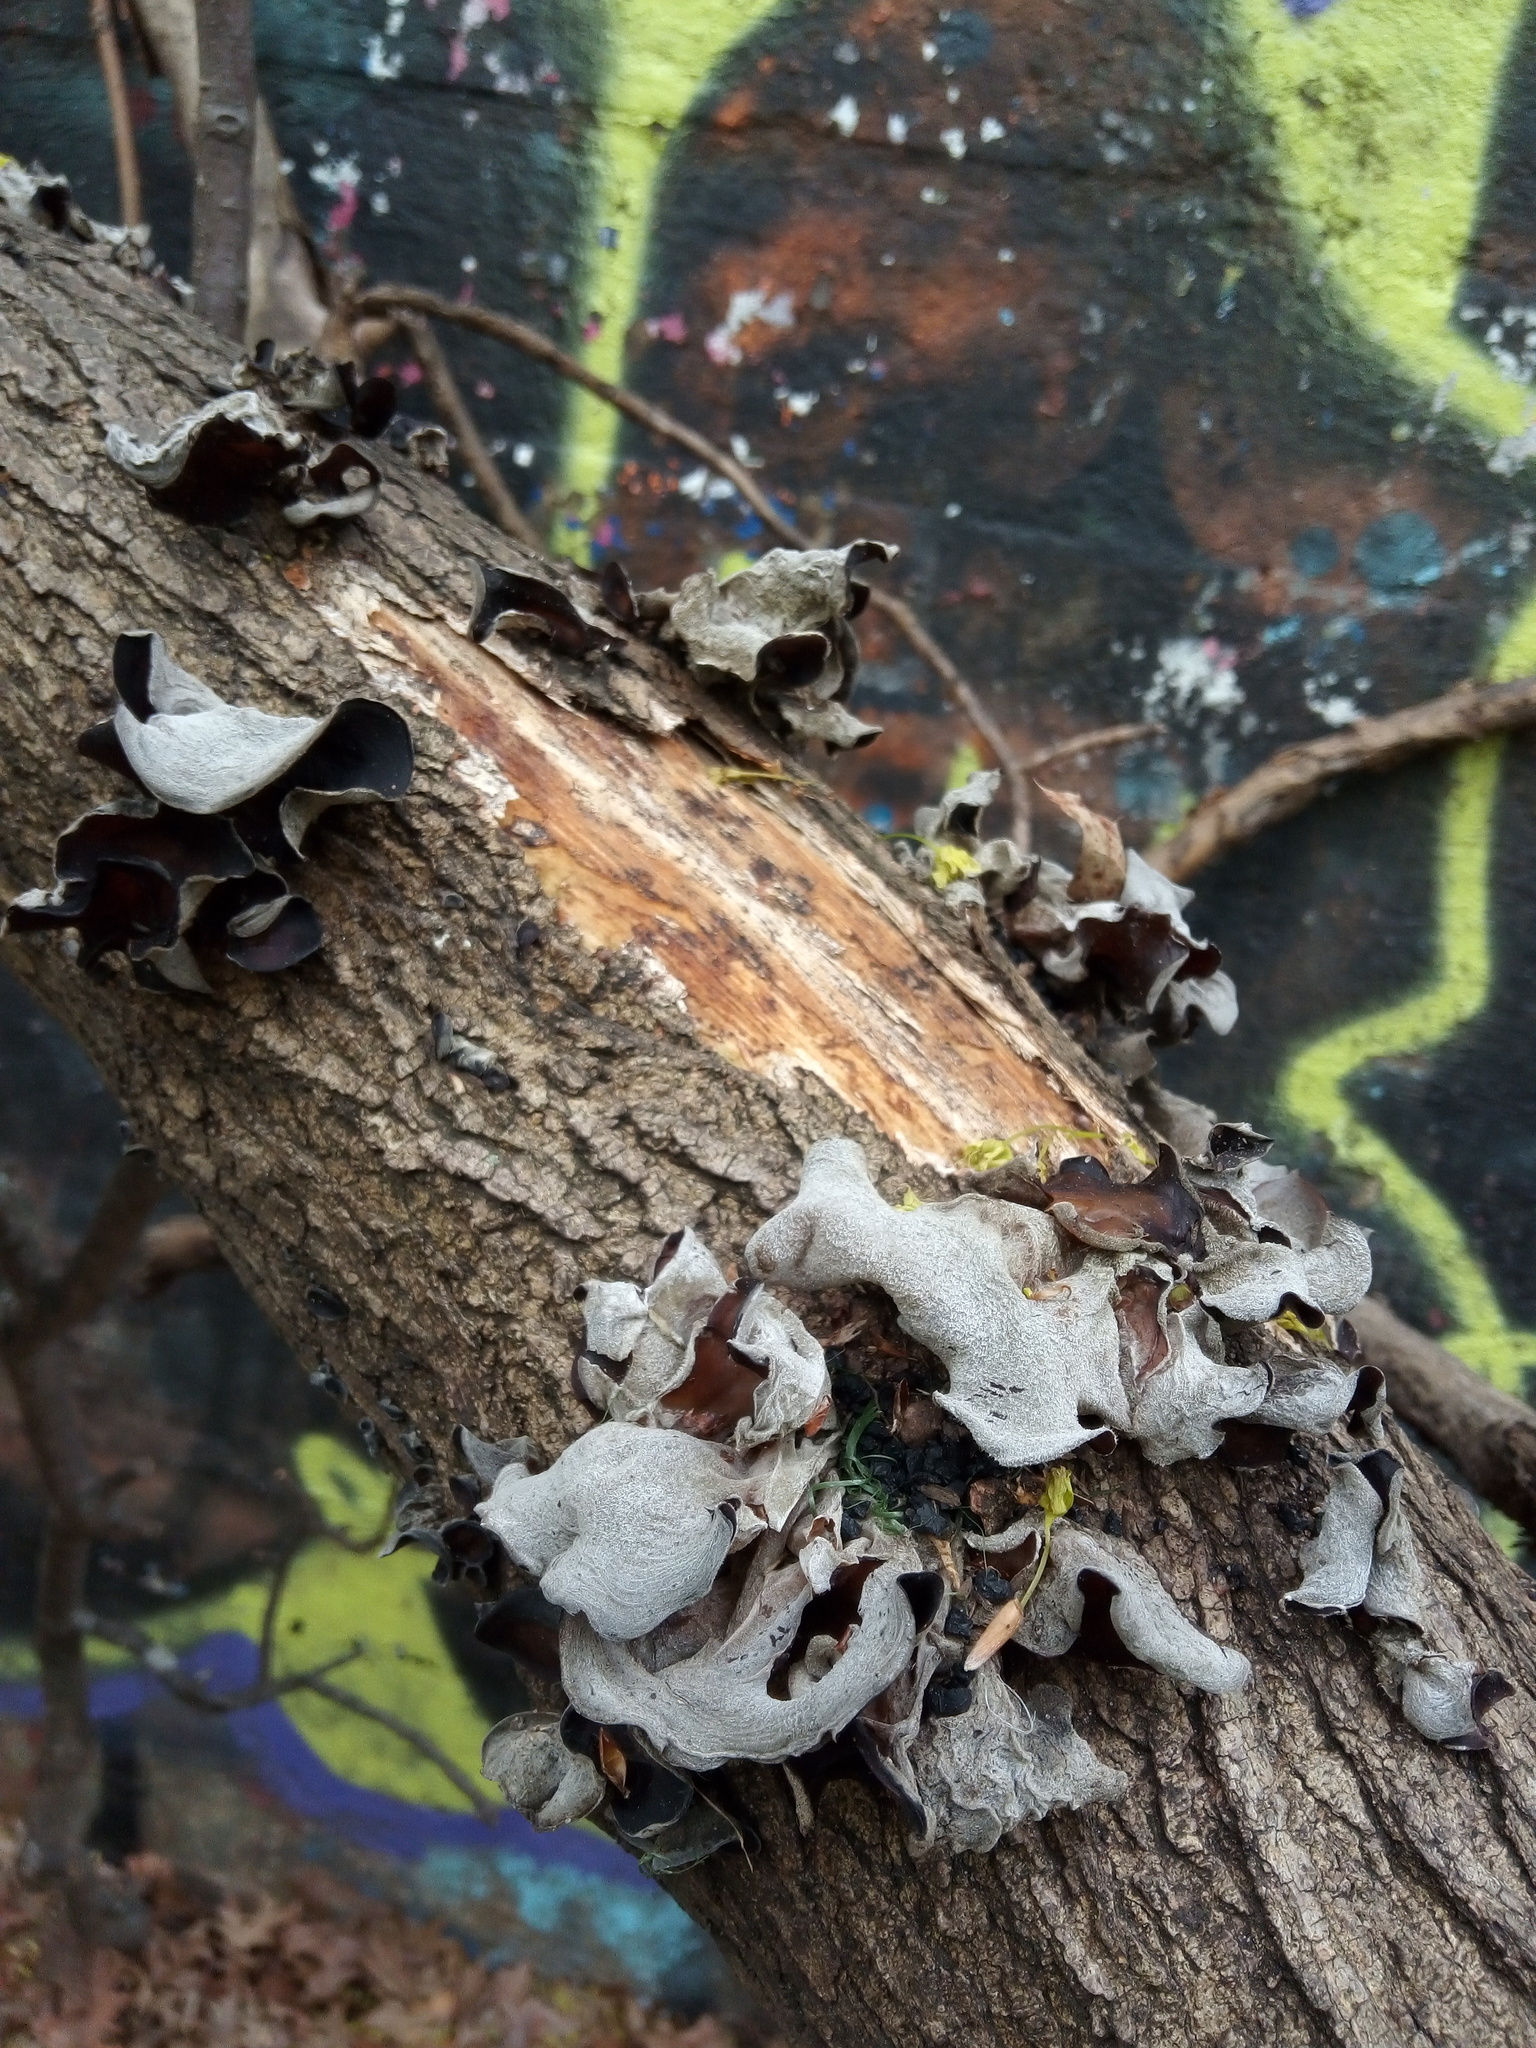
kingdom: Fungi
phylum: Basidiomycota
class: Agaricomycetes
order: Auriculariales
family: Auriculariaceae
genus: Auricularia
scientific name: Auricularia nigricans
